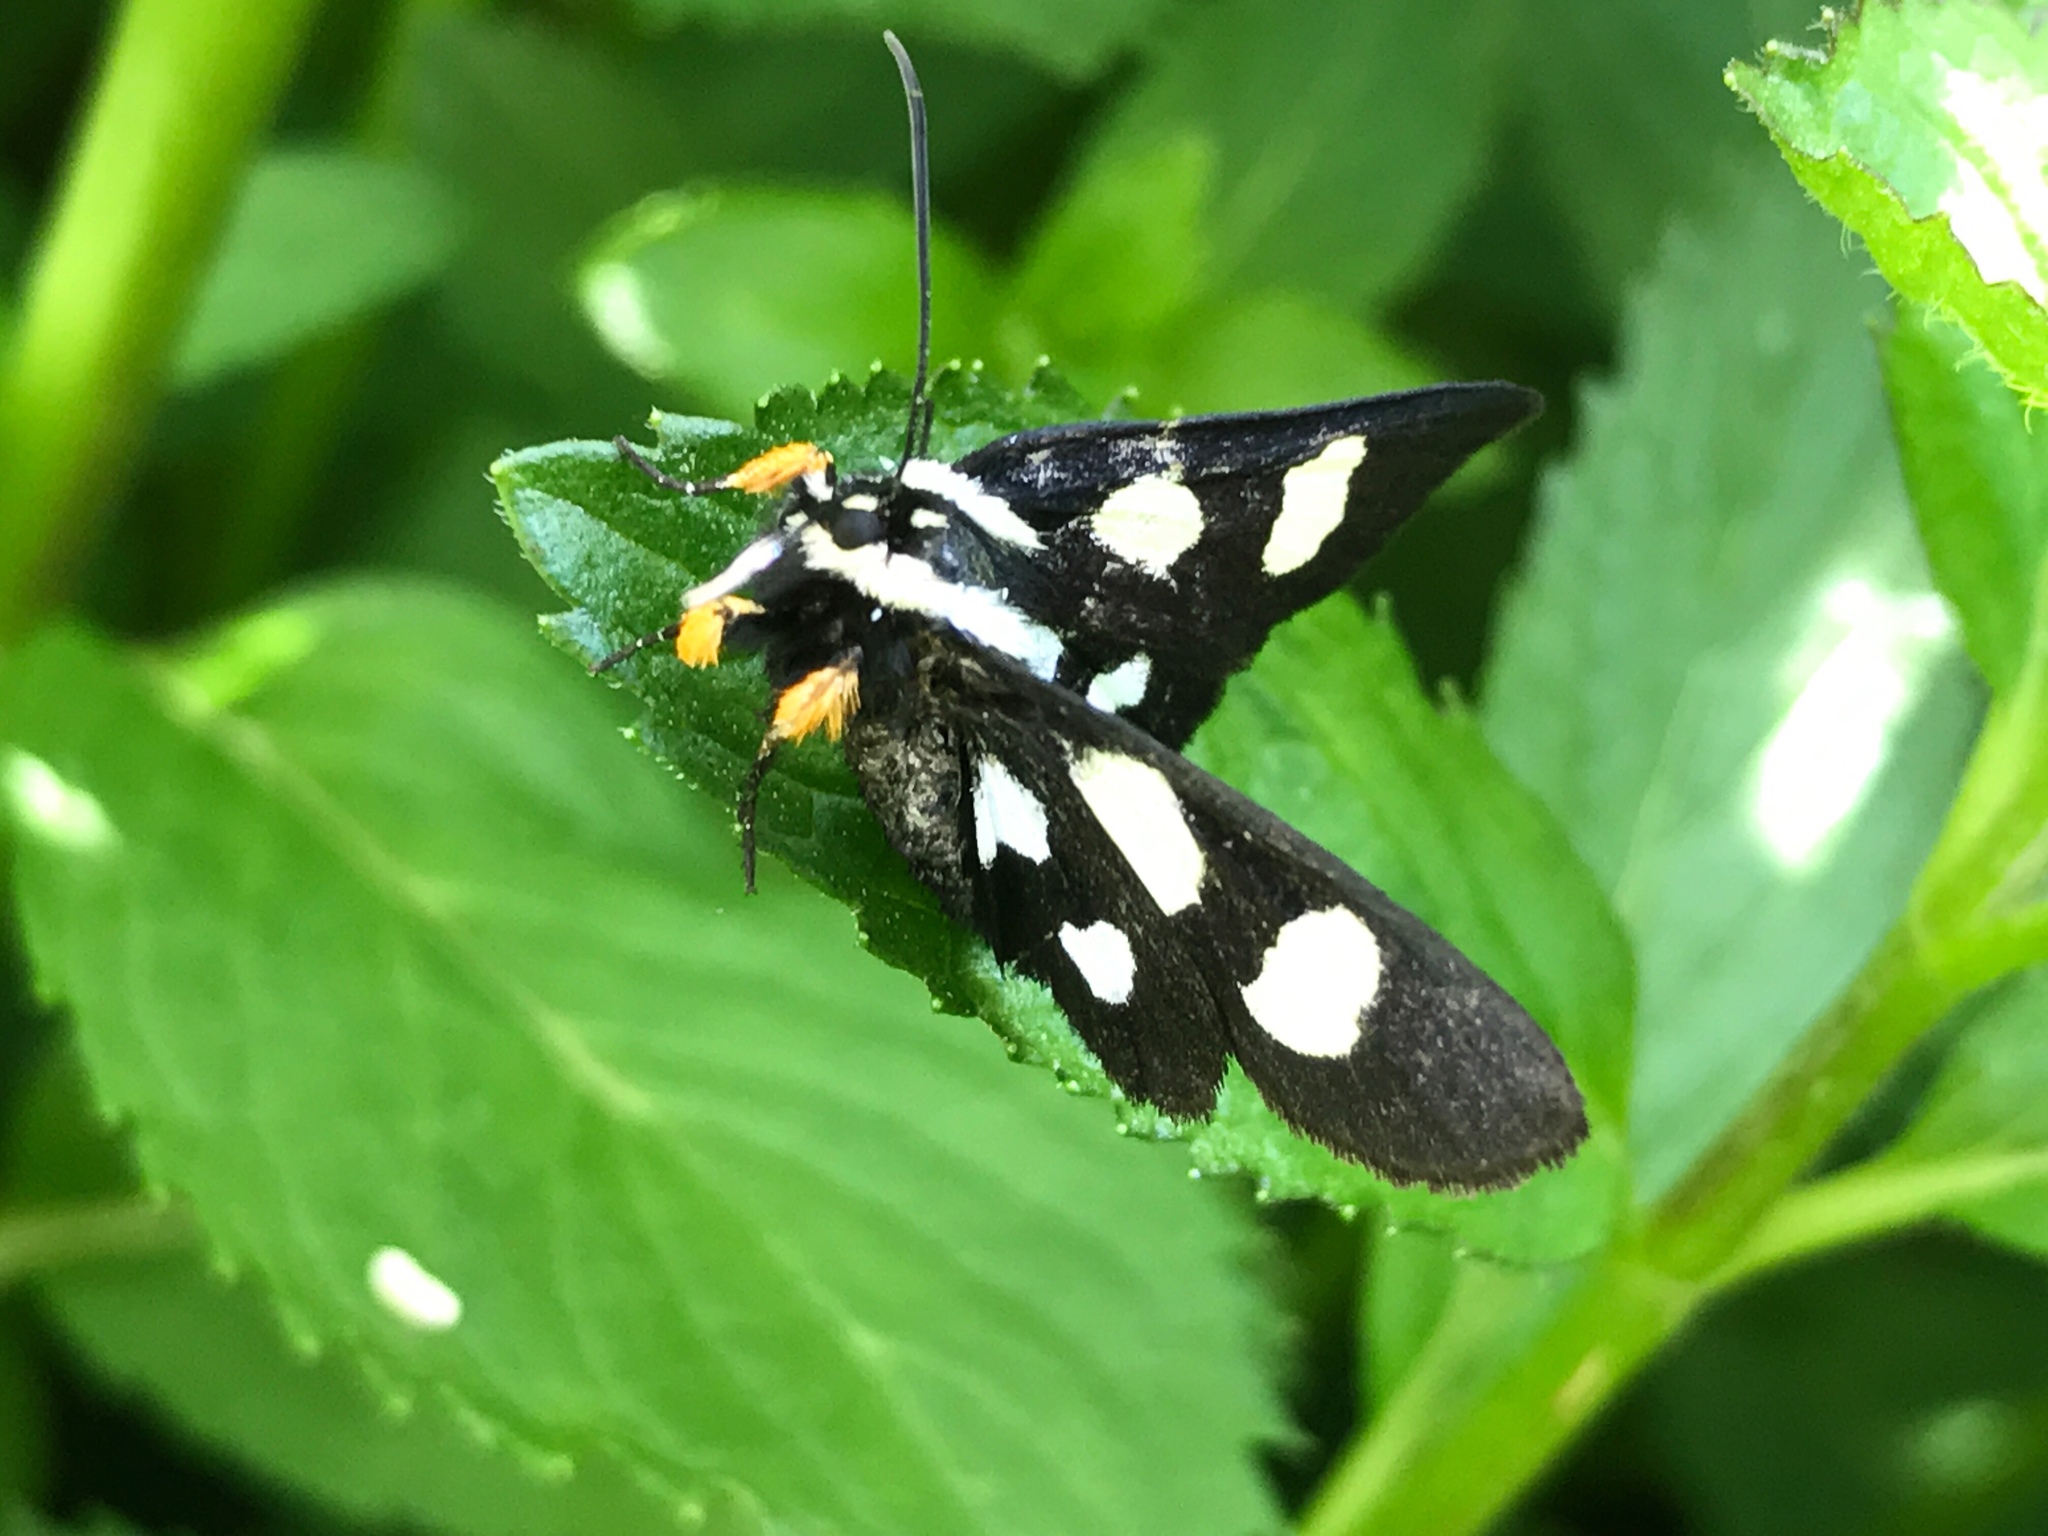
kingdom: Animalia
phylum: Arthropoda
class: Insecta
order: Lepidoptera
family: Noctuidae
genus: Alypia
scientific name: Alypia octomaculata
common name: Eight-spotted forester
